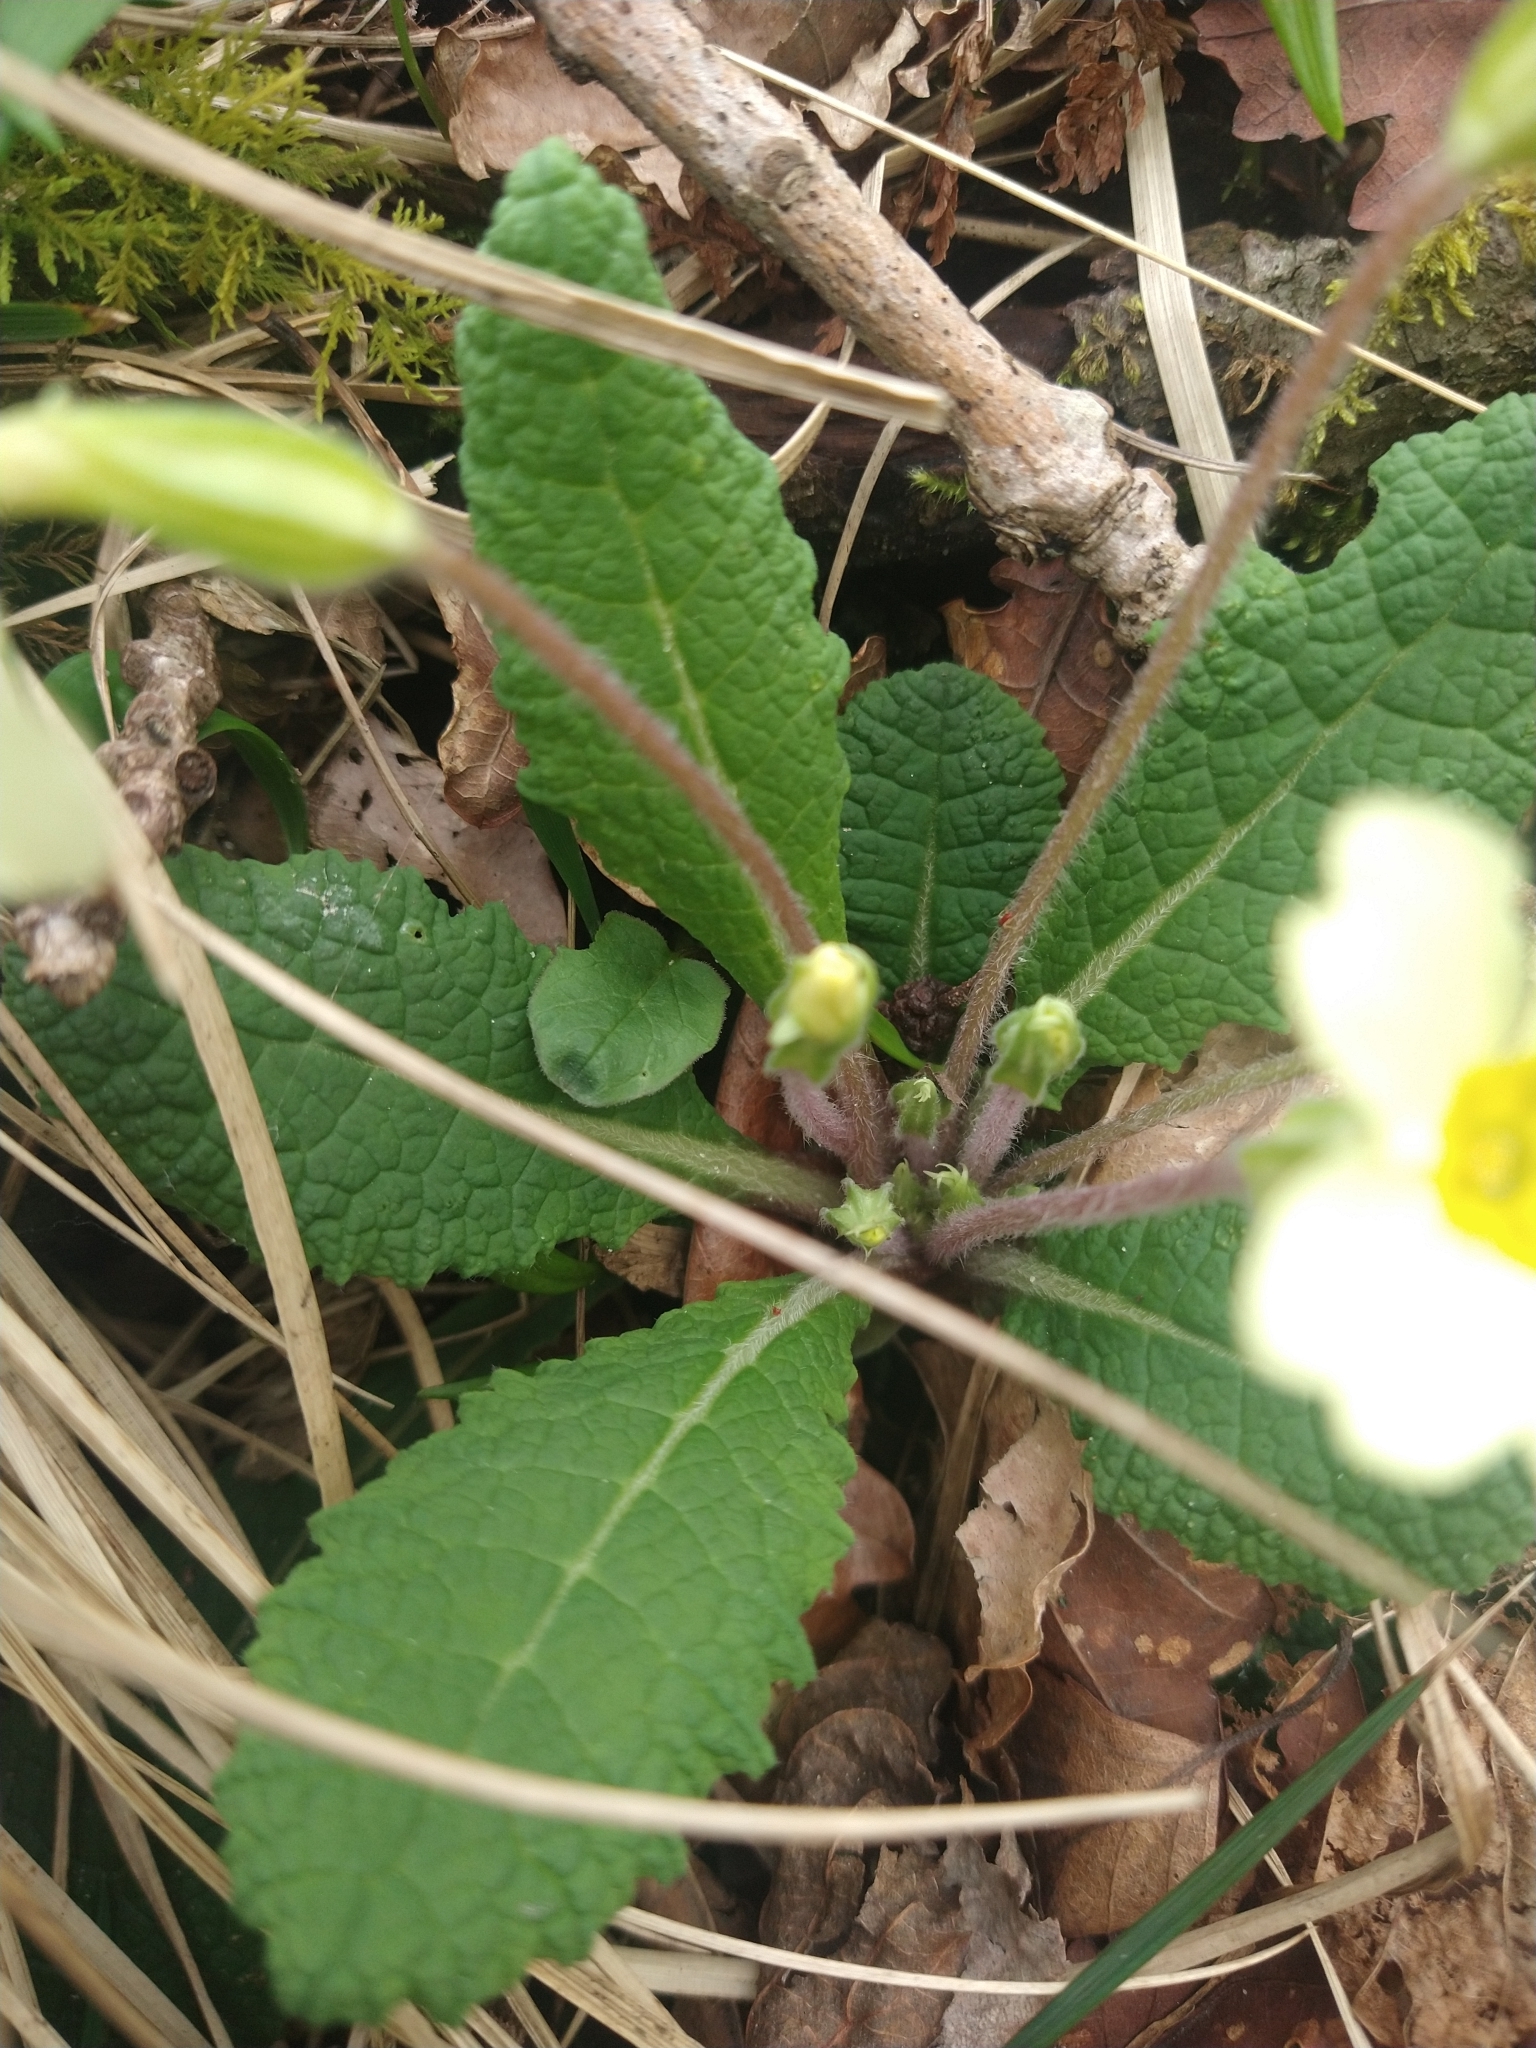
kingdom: Plantae
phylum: Tracheophyta
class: Magnoliopsida
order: Ericales
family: Primulaceae
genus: Primula
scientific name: Primula vulgaris
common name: Primrose
